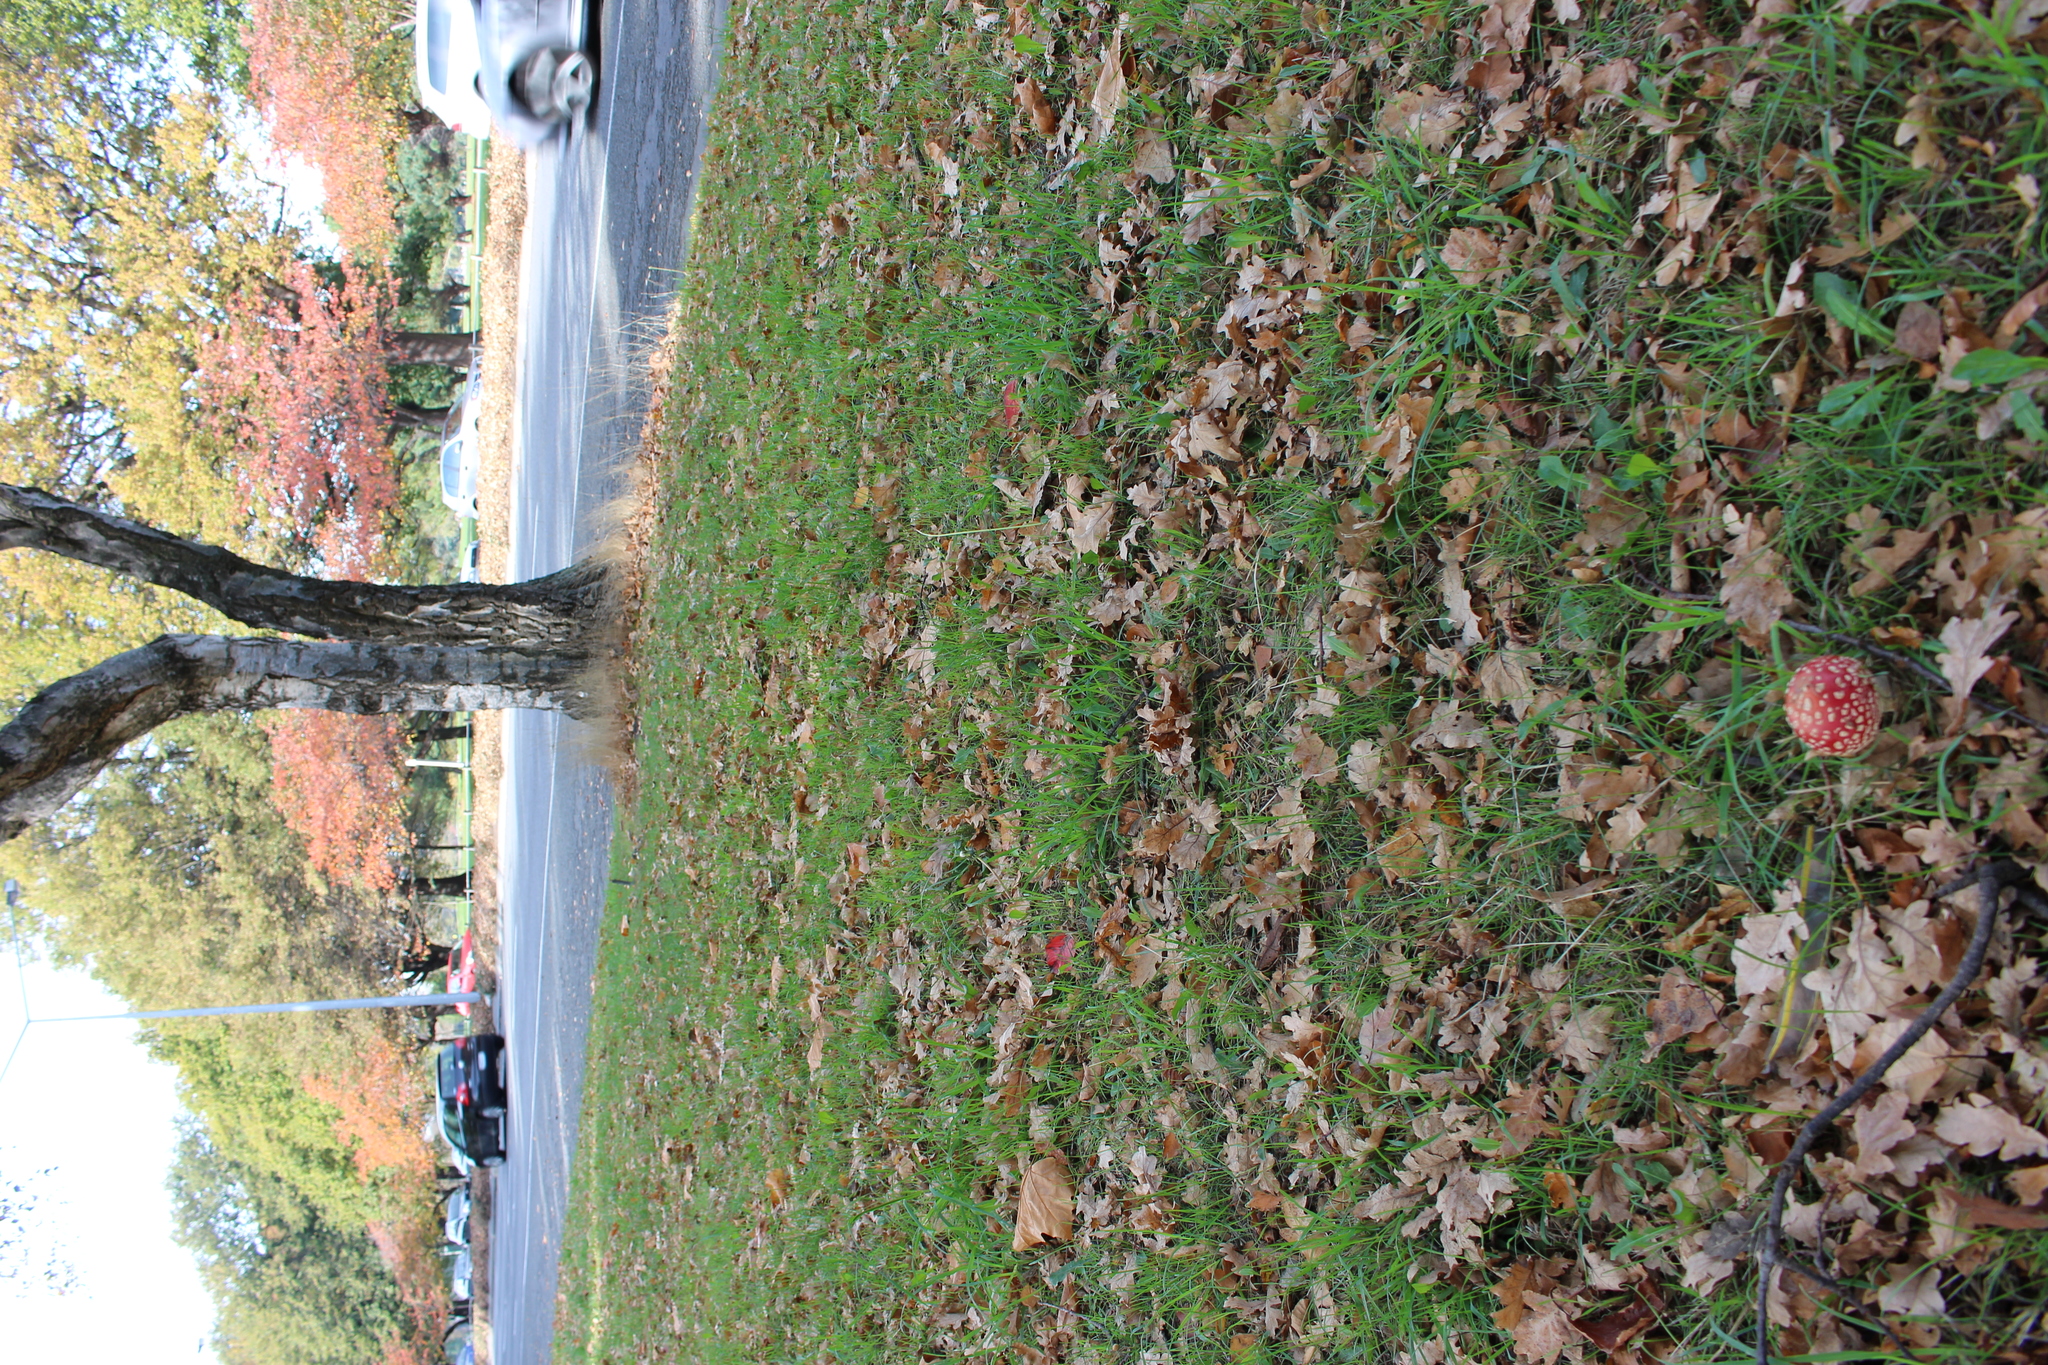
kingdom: Fungi
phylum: Basidiomycota
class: Agaricomycetes
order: Agaricales
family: Amanitaceae
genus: Amanita
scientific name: Amanita muscaria
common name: Fly agaric
